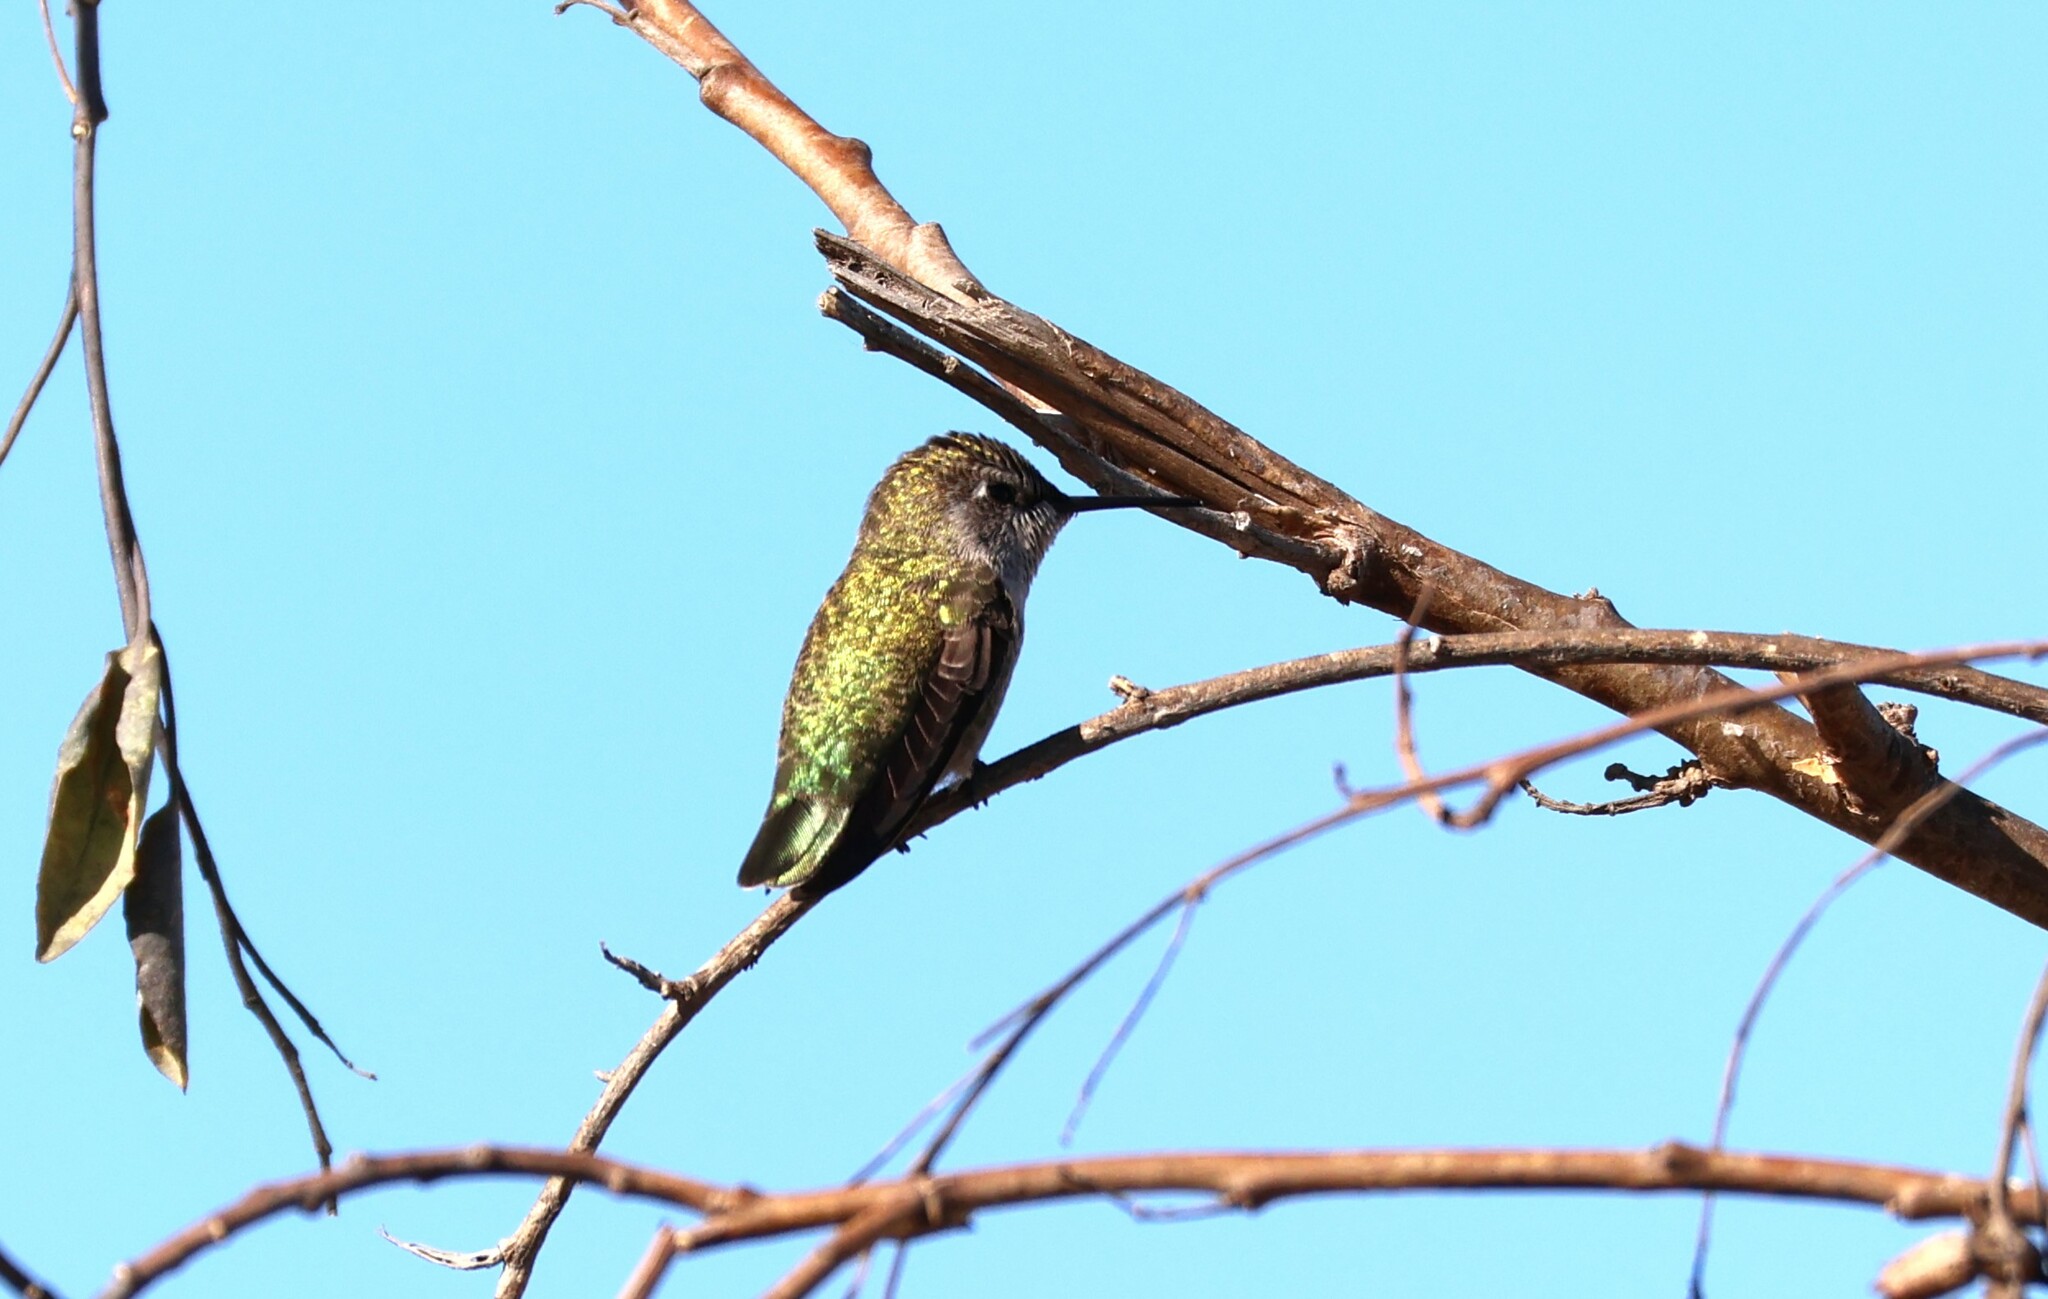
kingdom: Animalia
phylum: Chordata
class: Aves
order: Apodiformes
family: Trochilidae
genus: Calypte
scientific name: Calypte anna
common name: Anna's hummingbird
